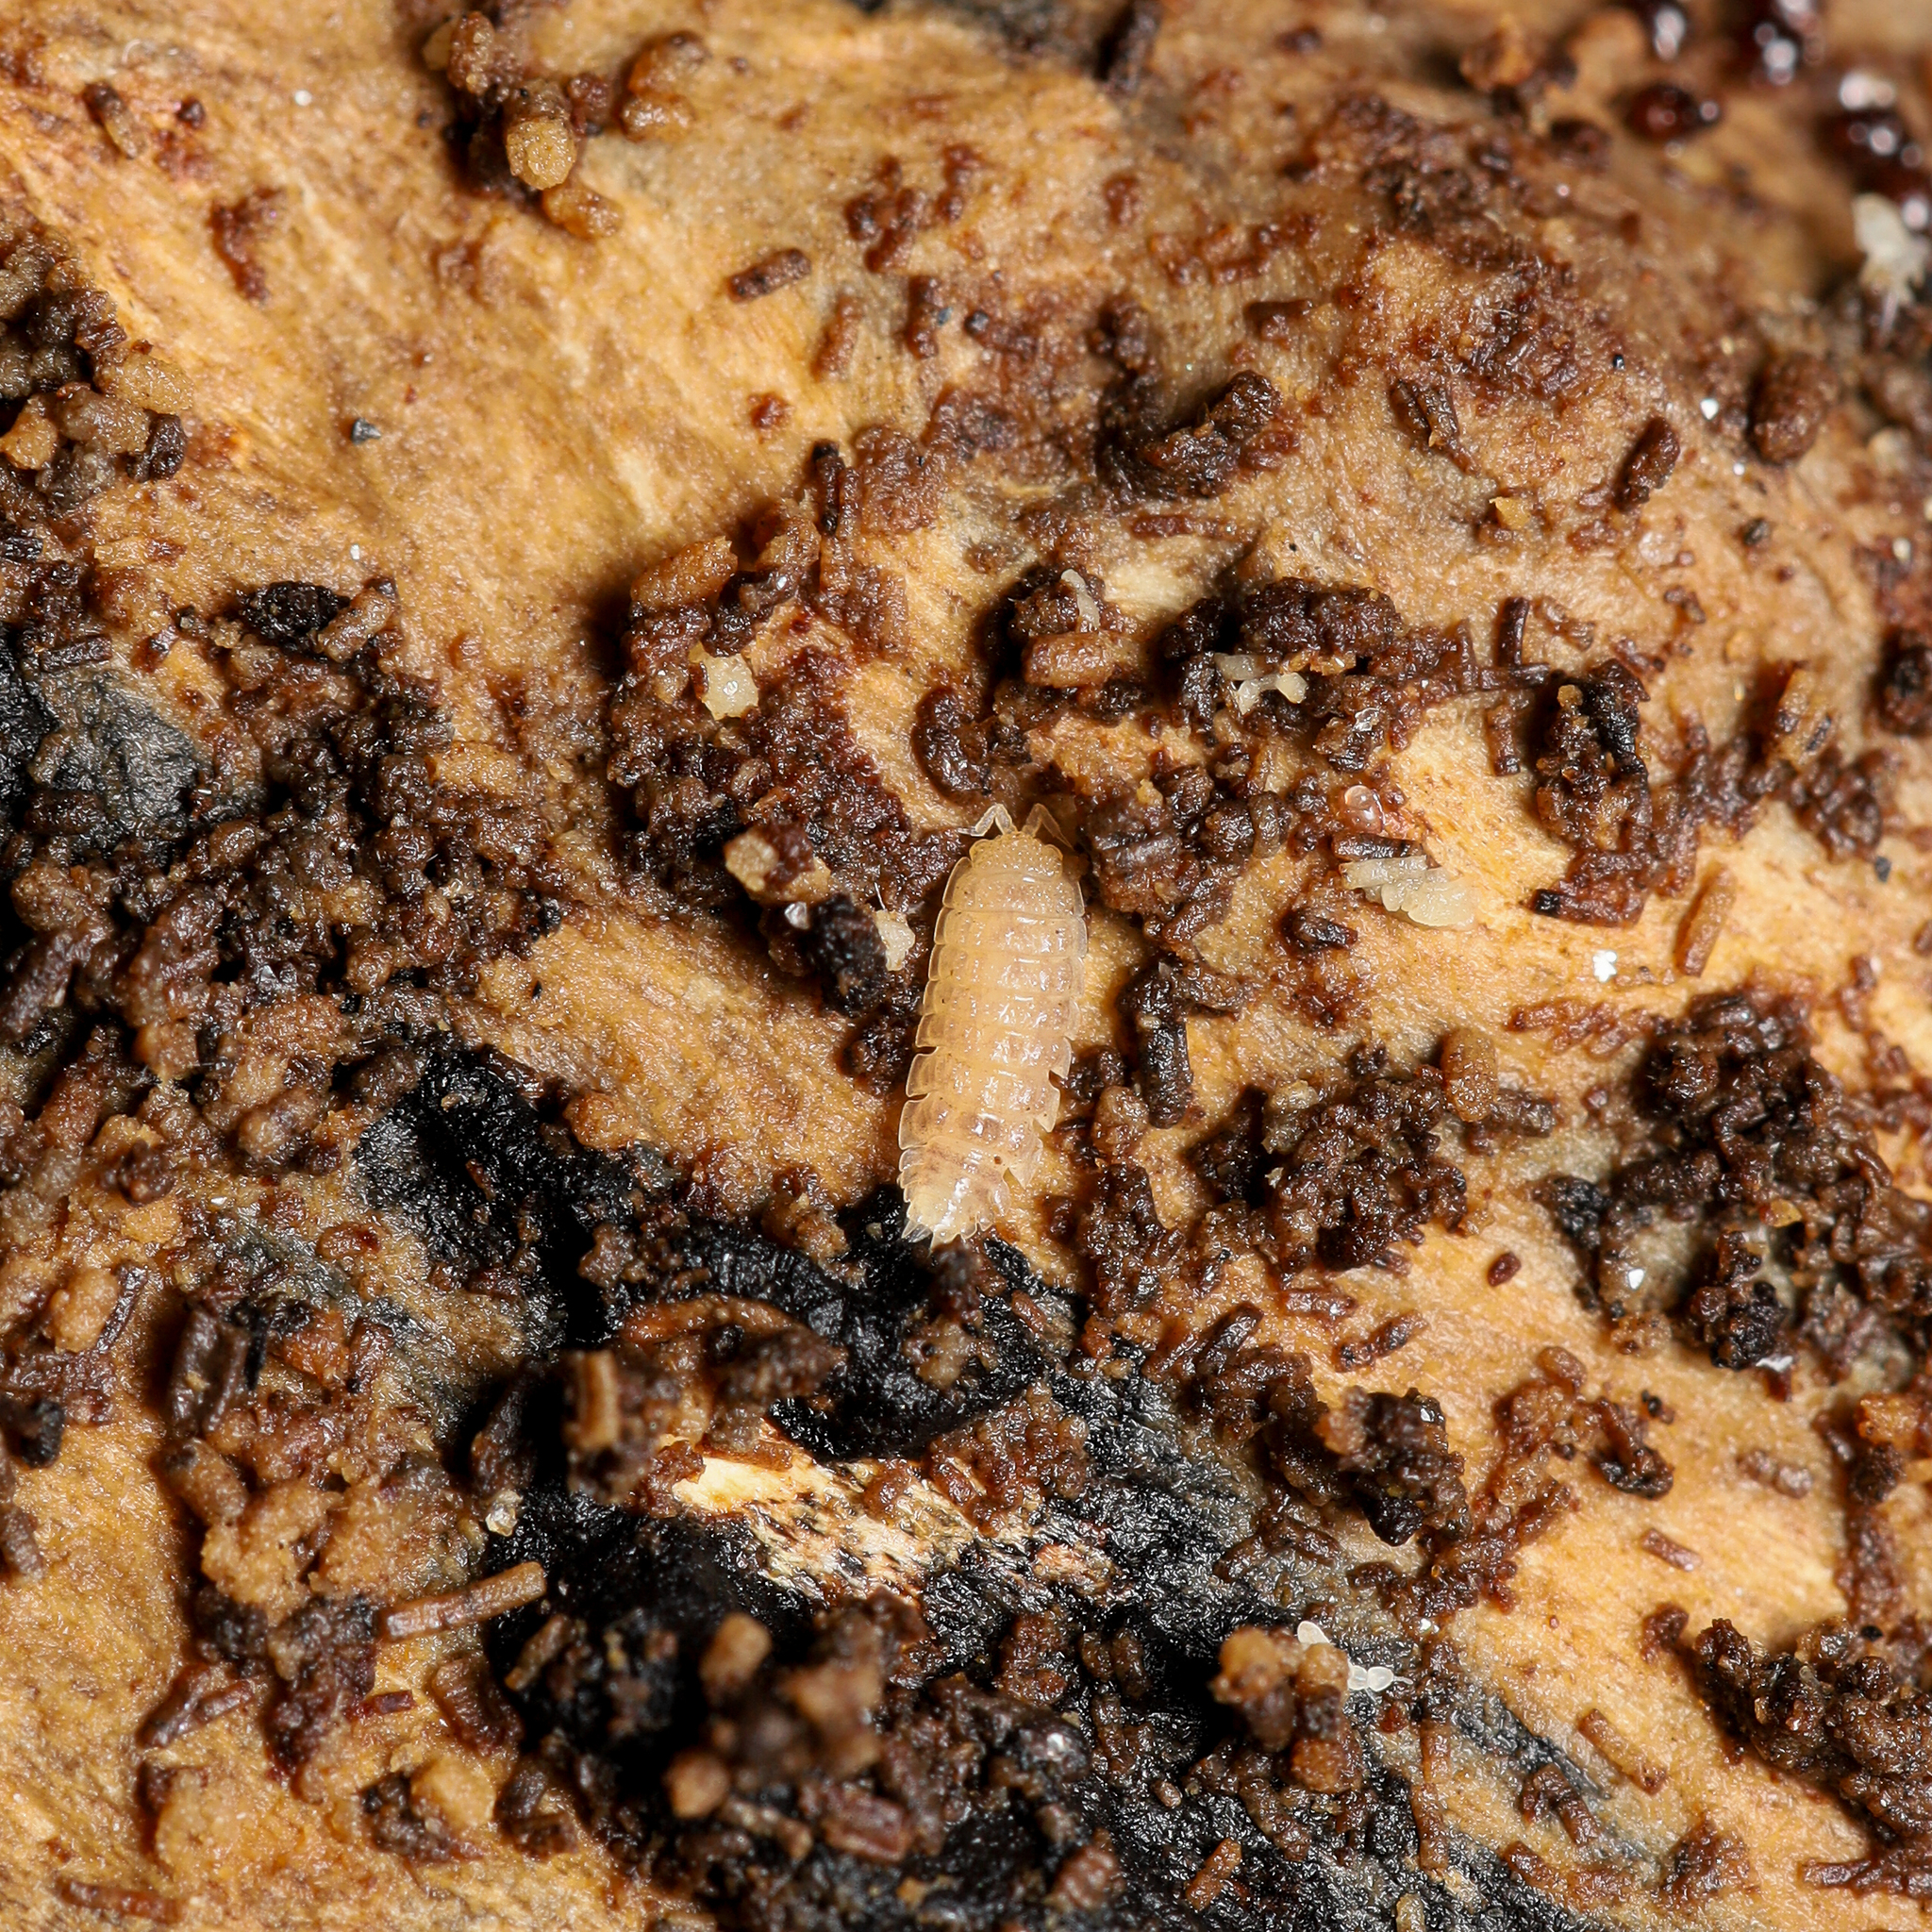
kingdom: Animalia
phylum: Arthropoda
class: Malacostraca
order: Isopoda
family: Trichoniscidae
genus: Haplophthalmus
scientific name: Haplophthalmus danicus
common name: Pillbug
